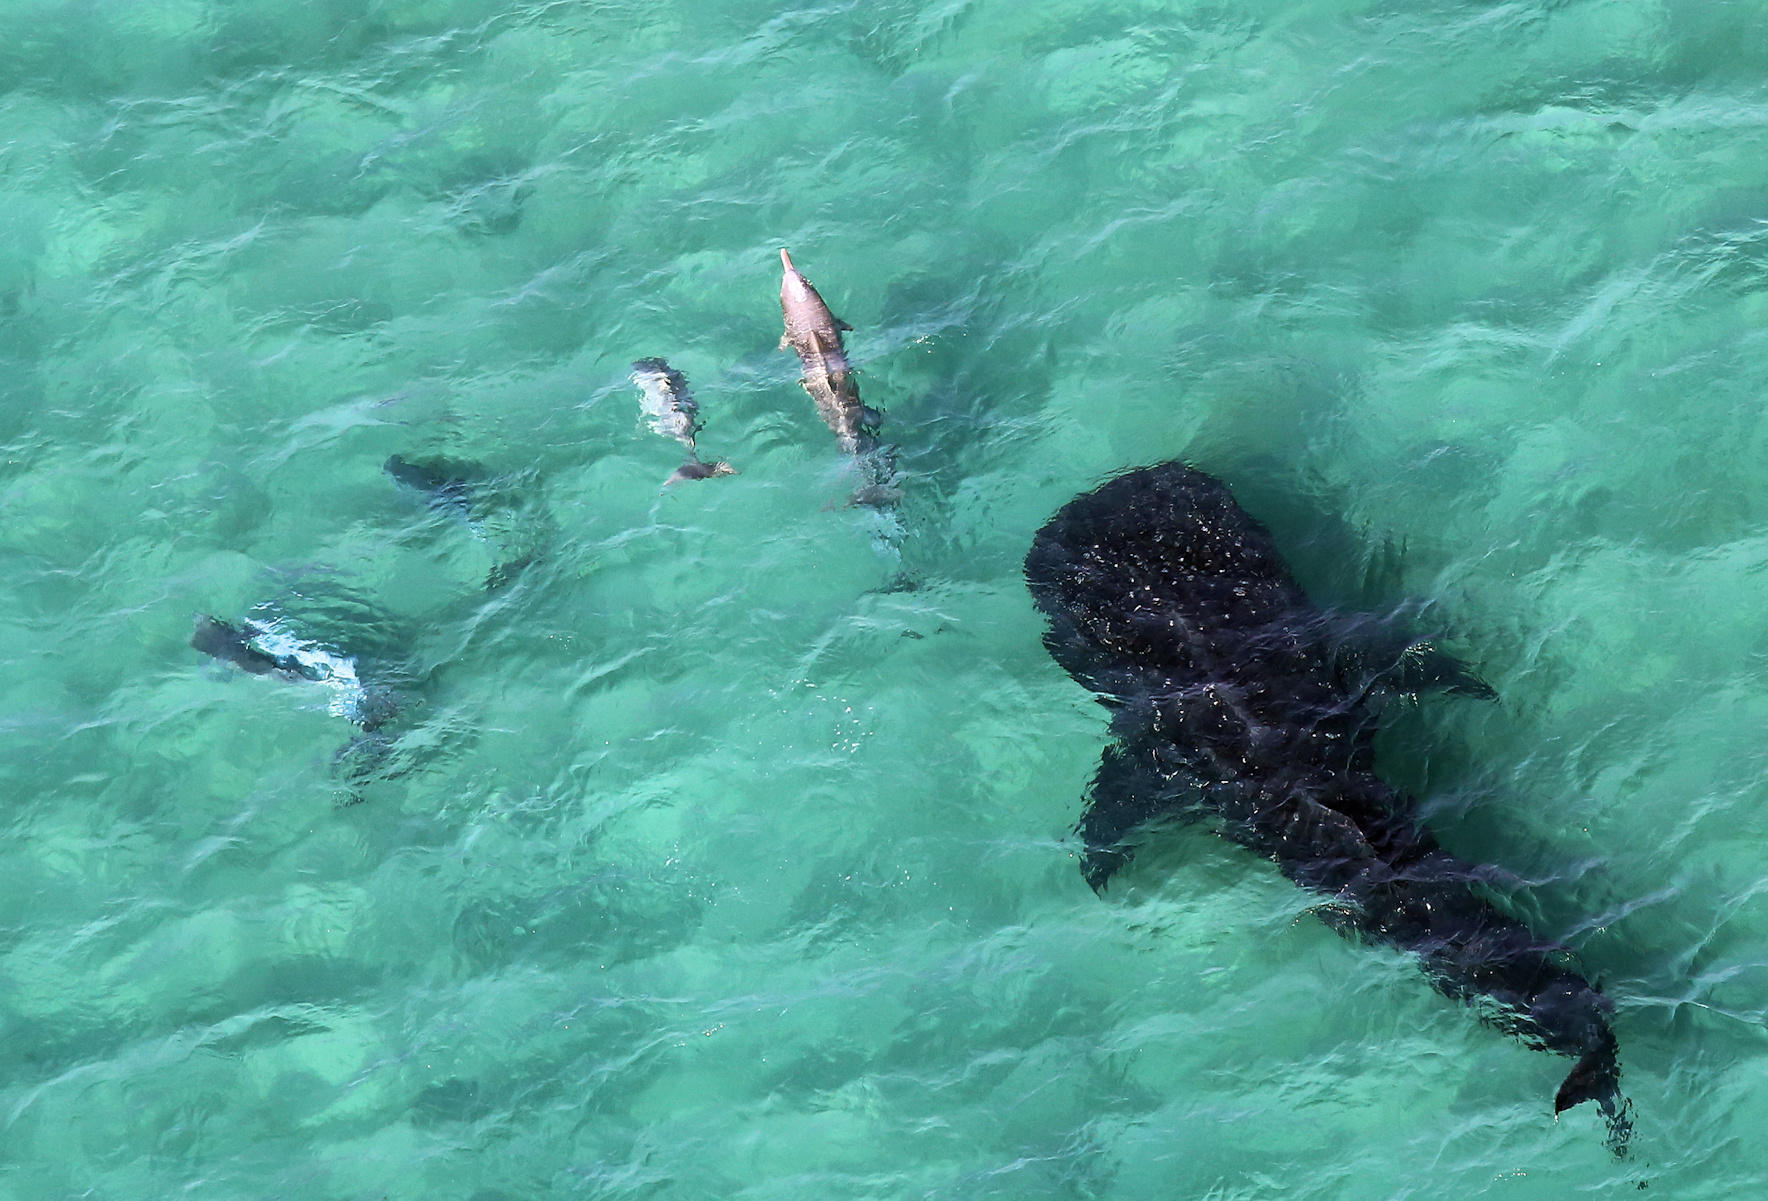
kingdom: Animalia
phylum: Chordata
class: Mammalia
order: Cetacea
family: Delphinidae
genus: Tursiops
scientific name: Tursiops aduncus
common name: Indo-pacific bottlenose dolphin
